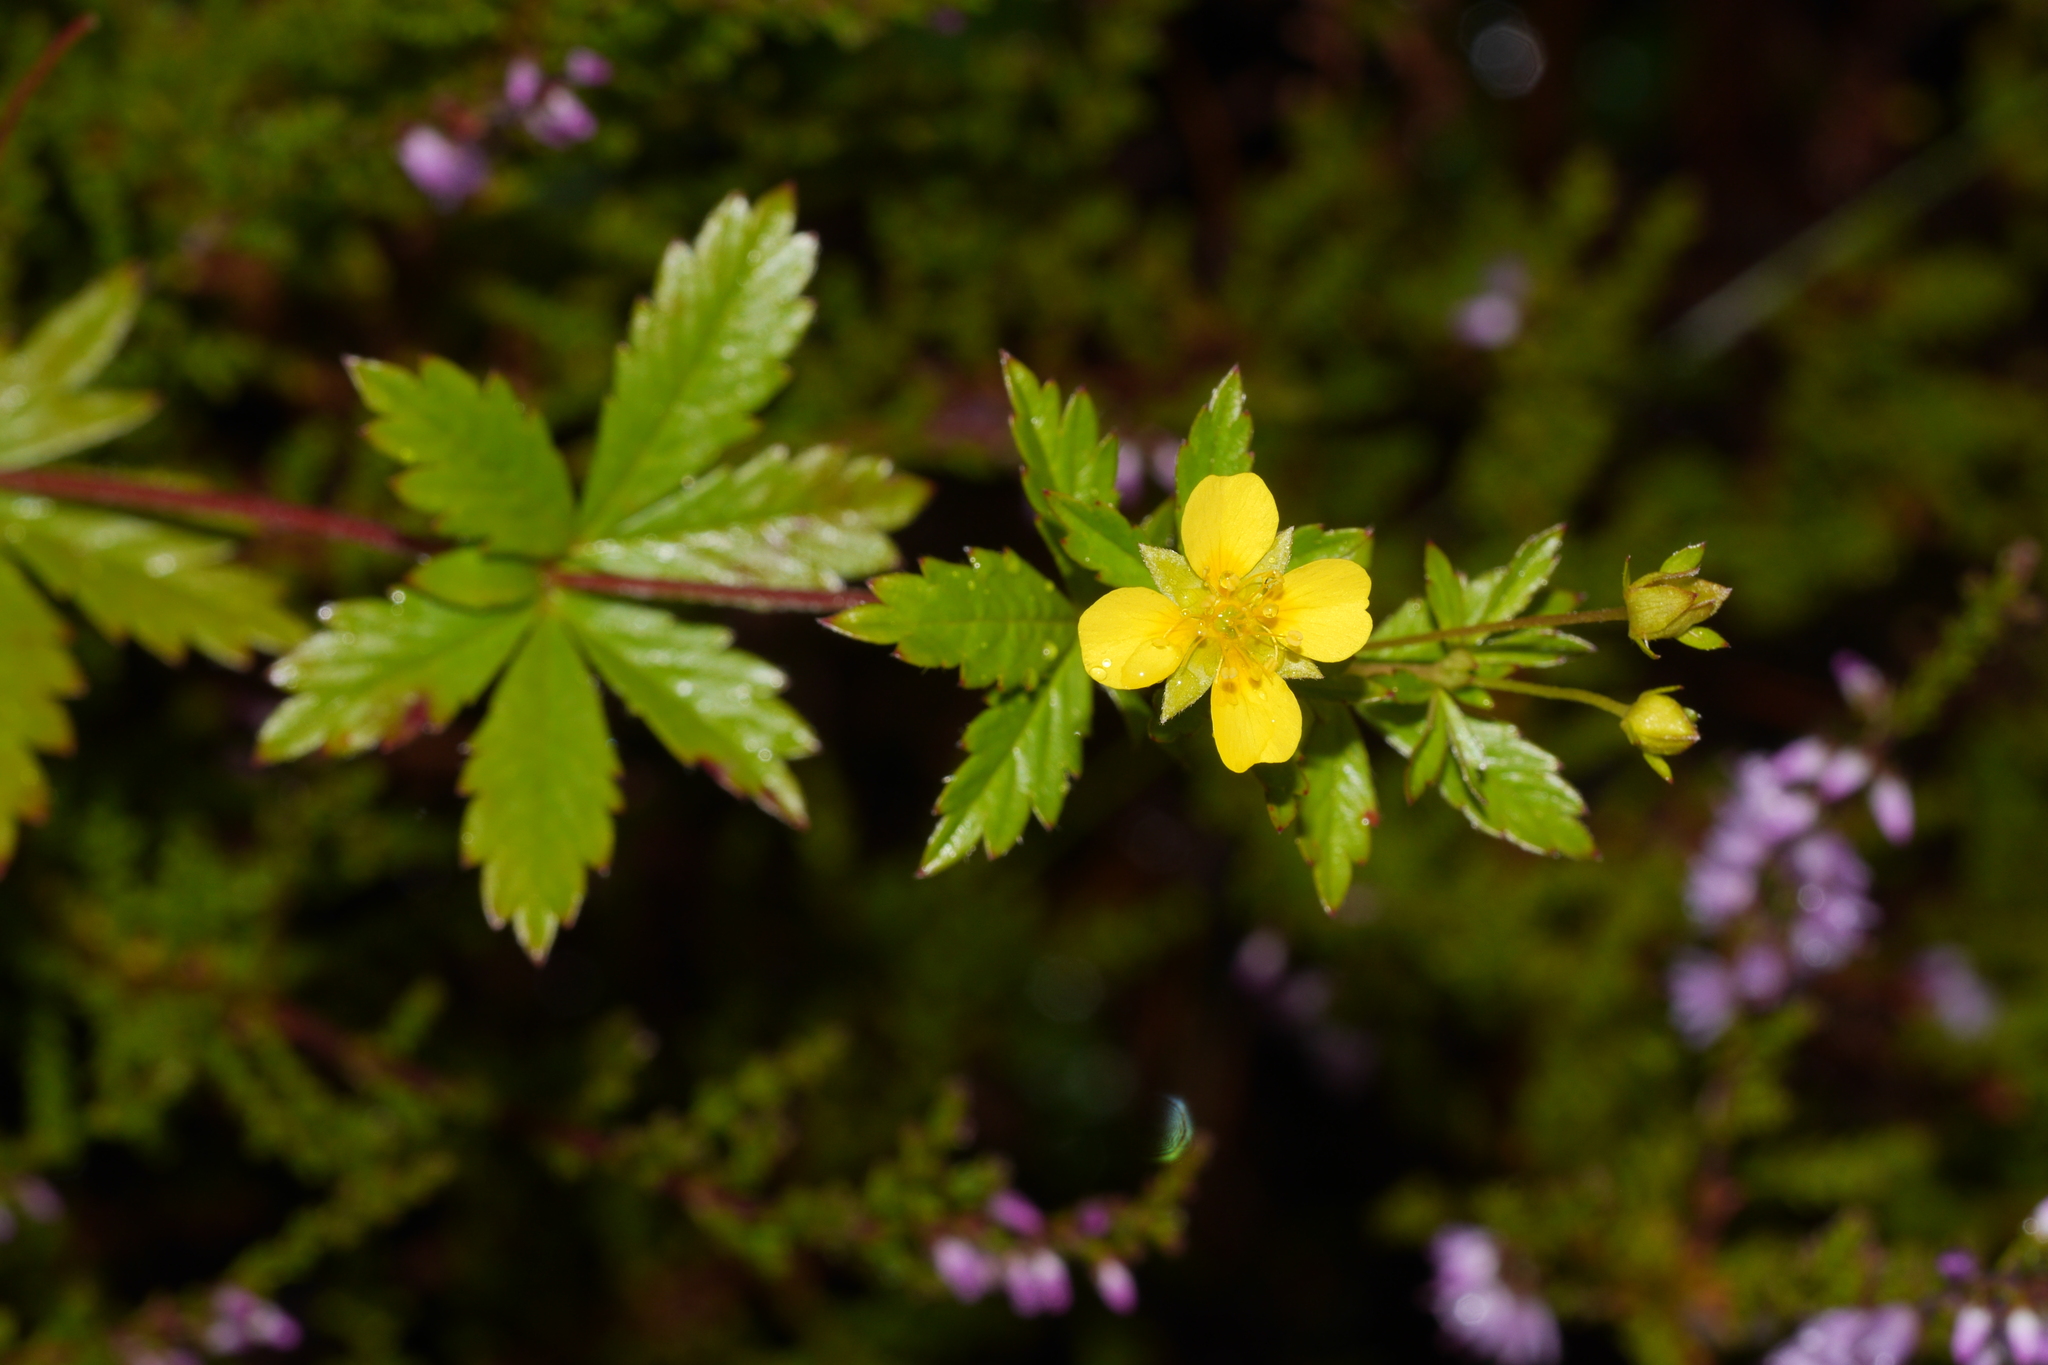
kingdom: Plantae
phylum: Tracheophyta
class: Magnoliopsida
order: Rosales
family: Rosaceae
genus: Potentilla
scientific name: Potentilla erecta
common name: Tormentil
